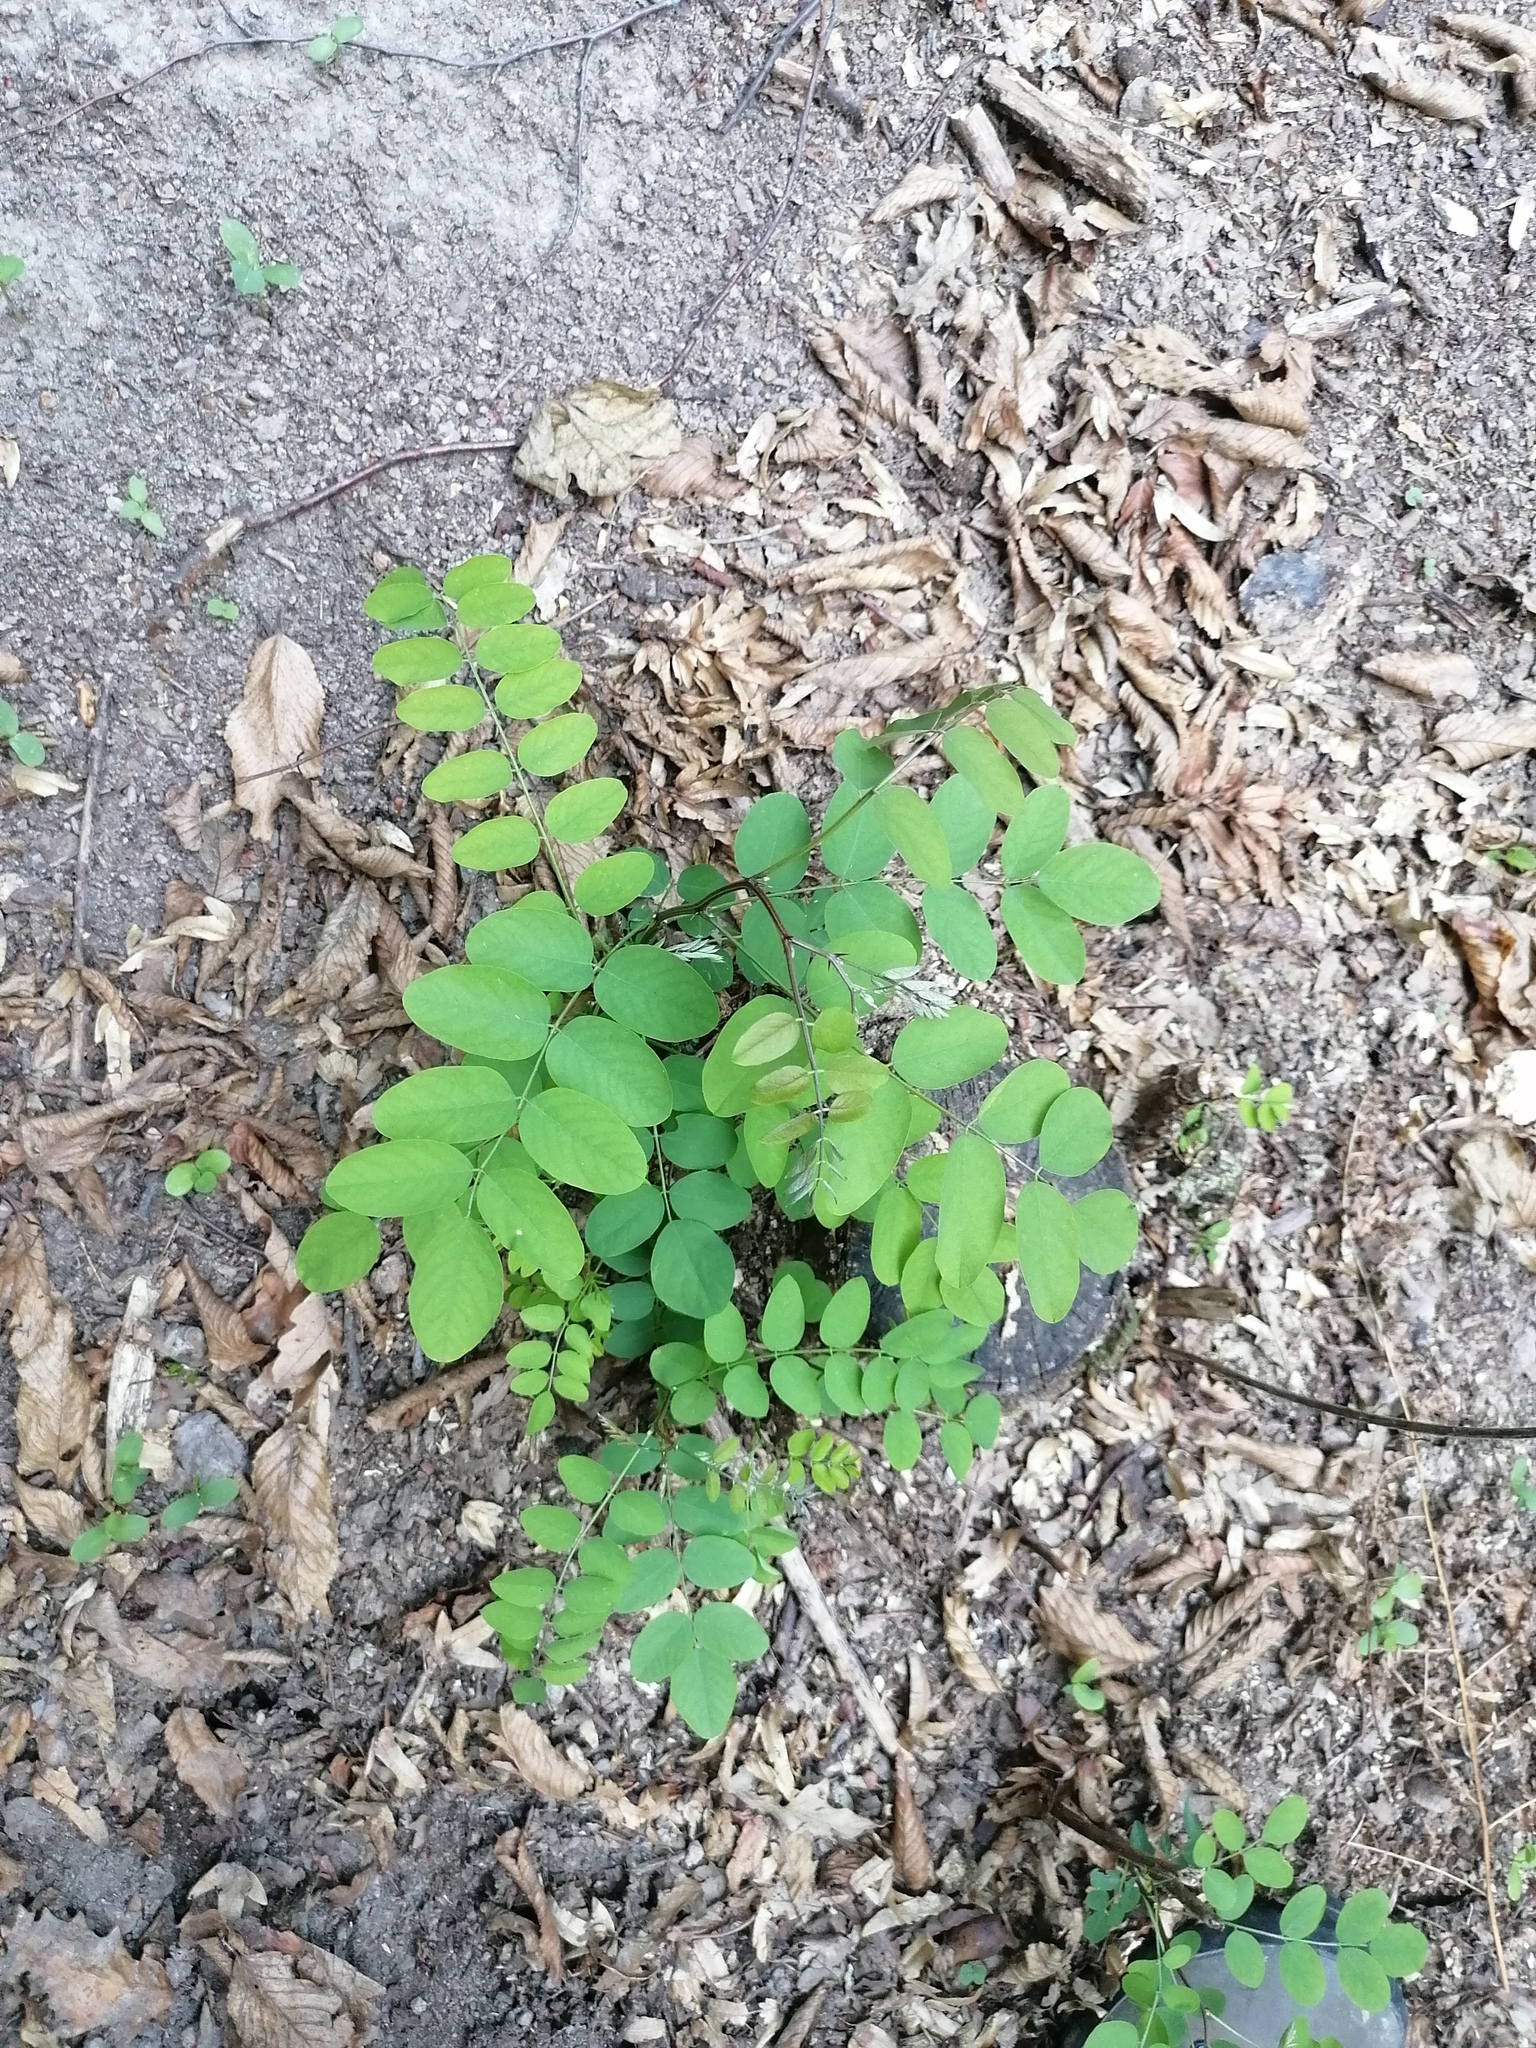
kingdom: Plantae
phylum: Tracheophyta
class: Magnoliopsida
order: Fabales
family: Fabaceae
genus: Robinia
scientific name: Robinia pseudoacacia
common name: Black locust
